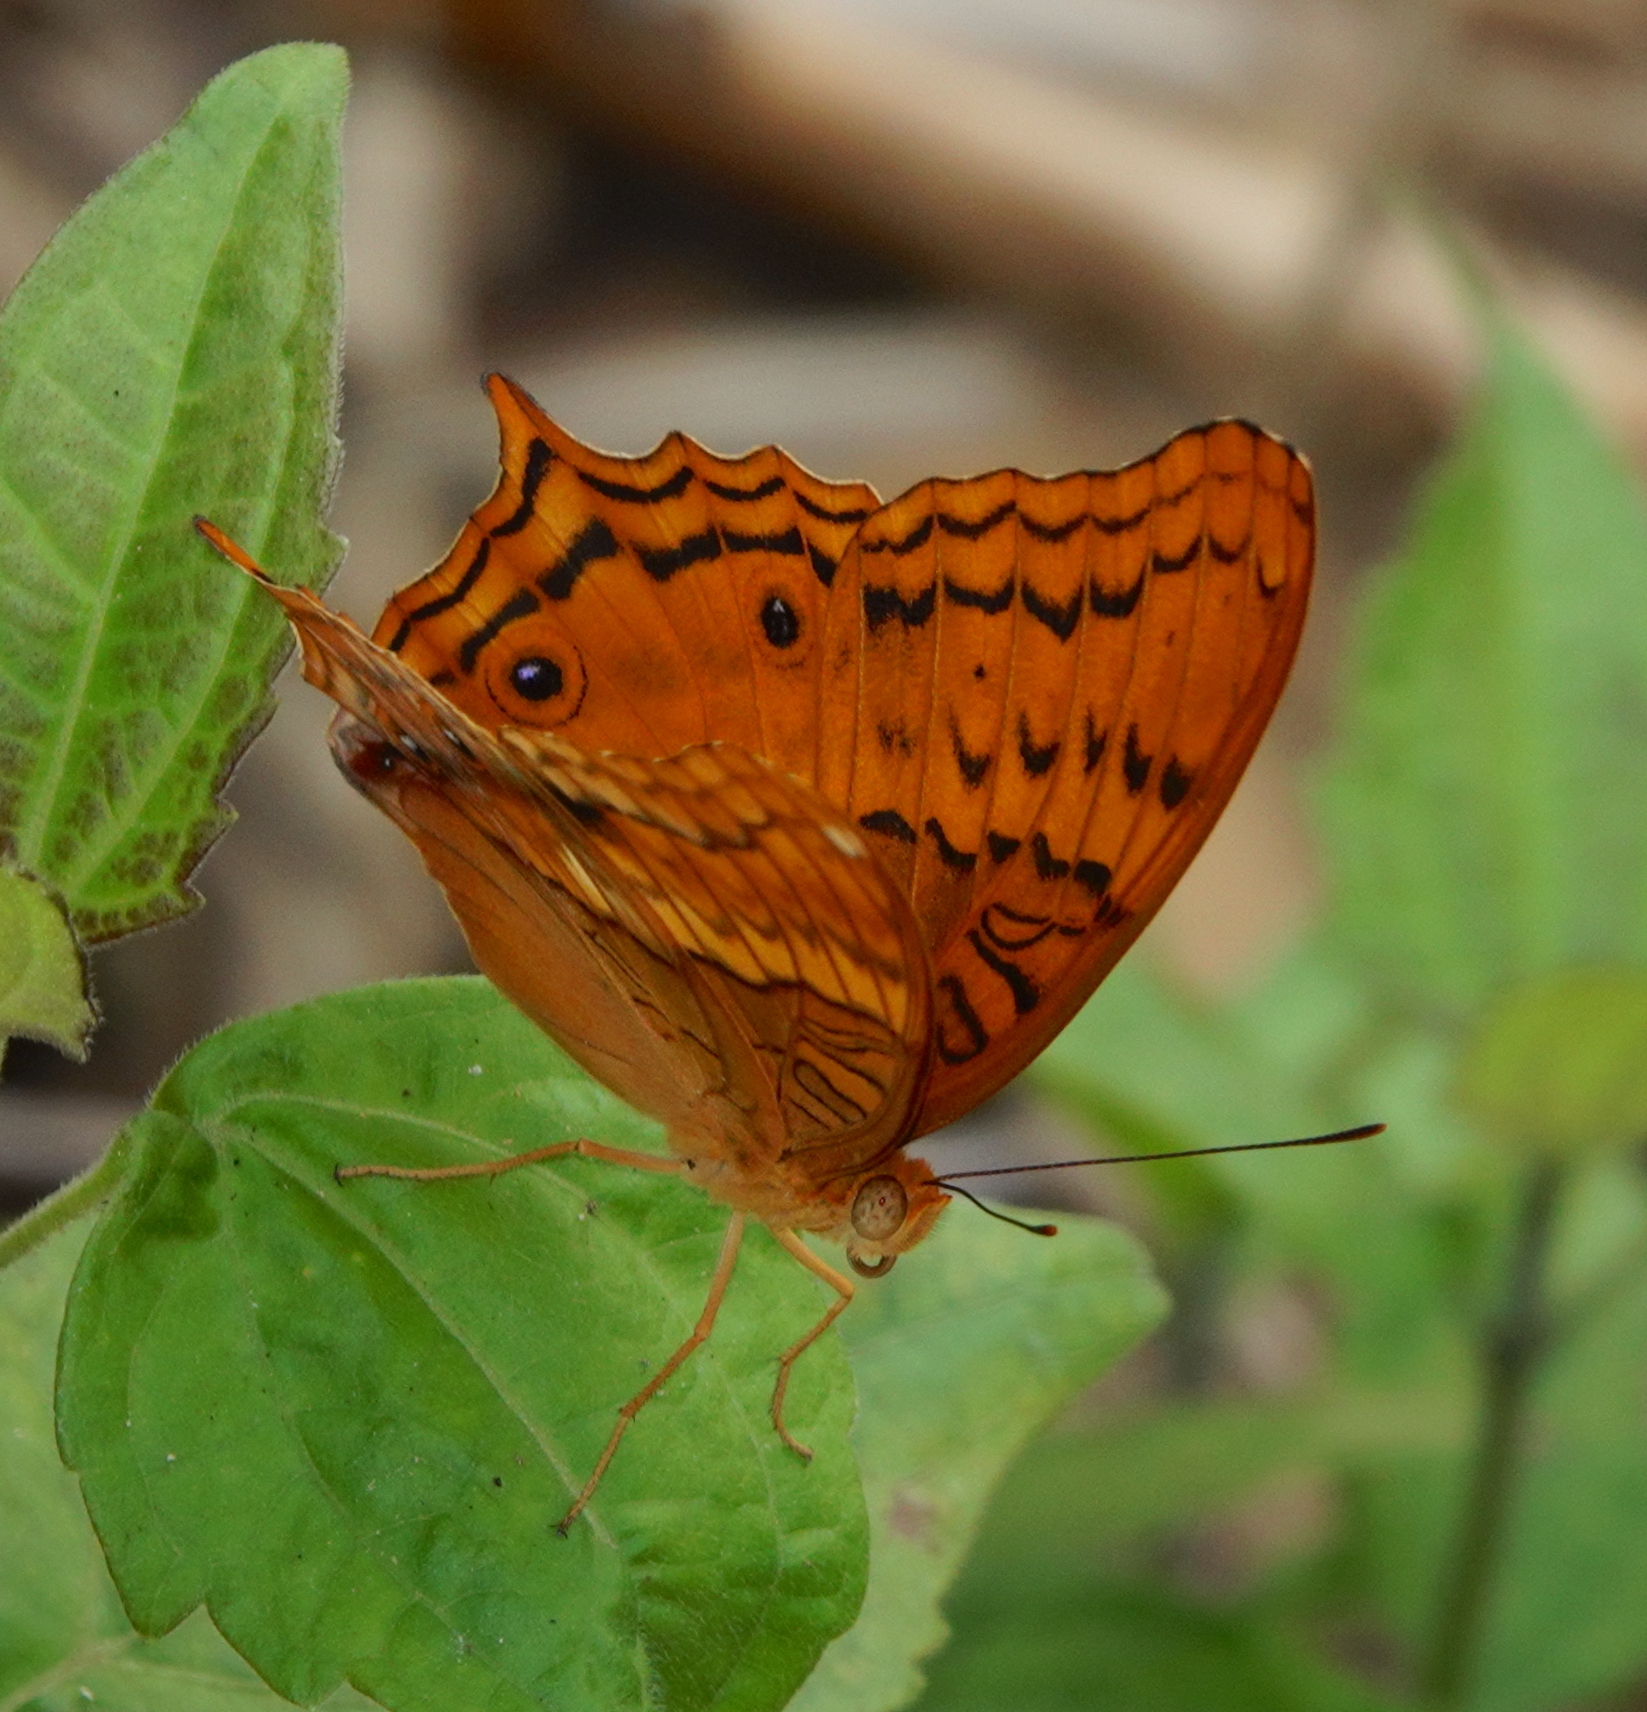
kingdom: Animalia
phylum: Arthropoda
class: Insecta
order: Lepidoptera
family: Nymphalidae
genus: Vindula
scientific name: Vindula deione
